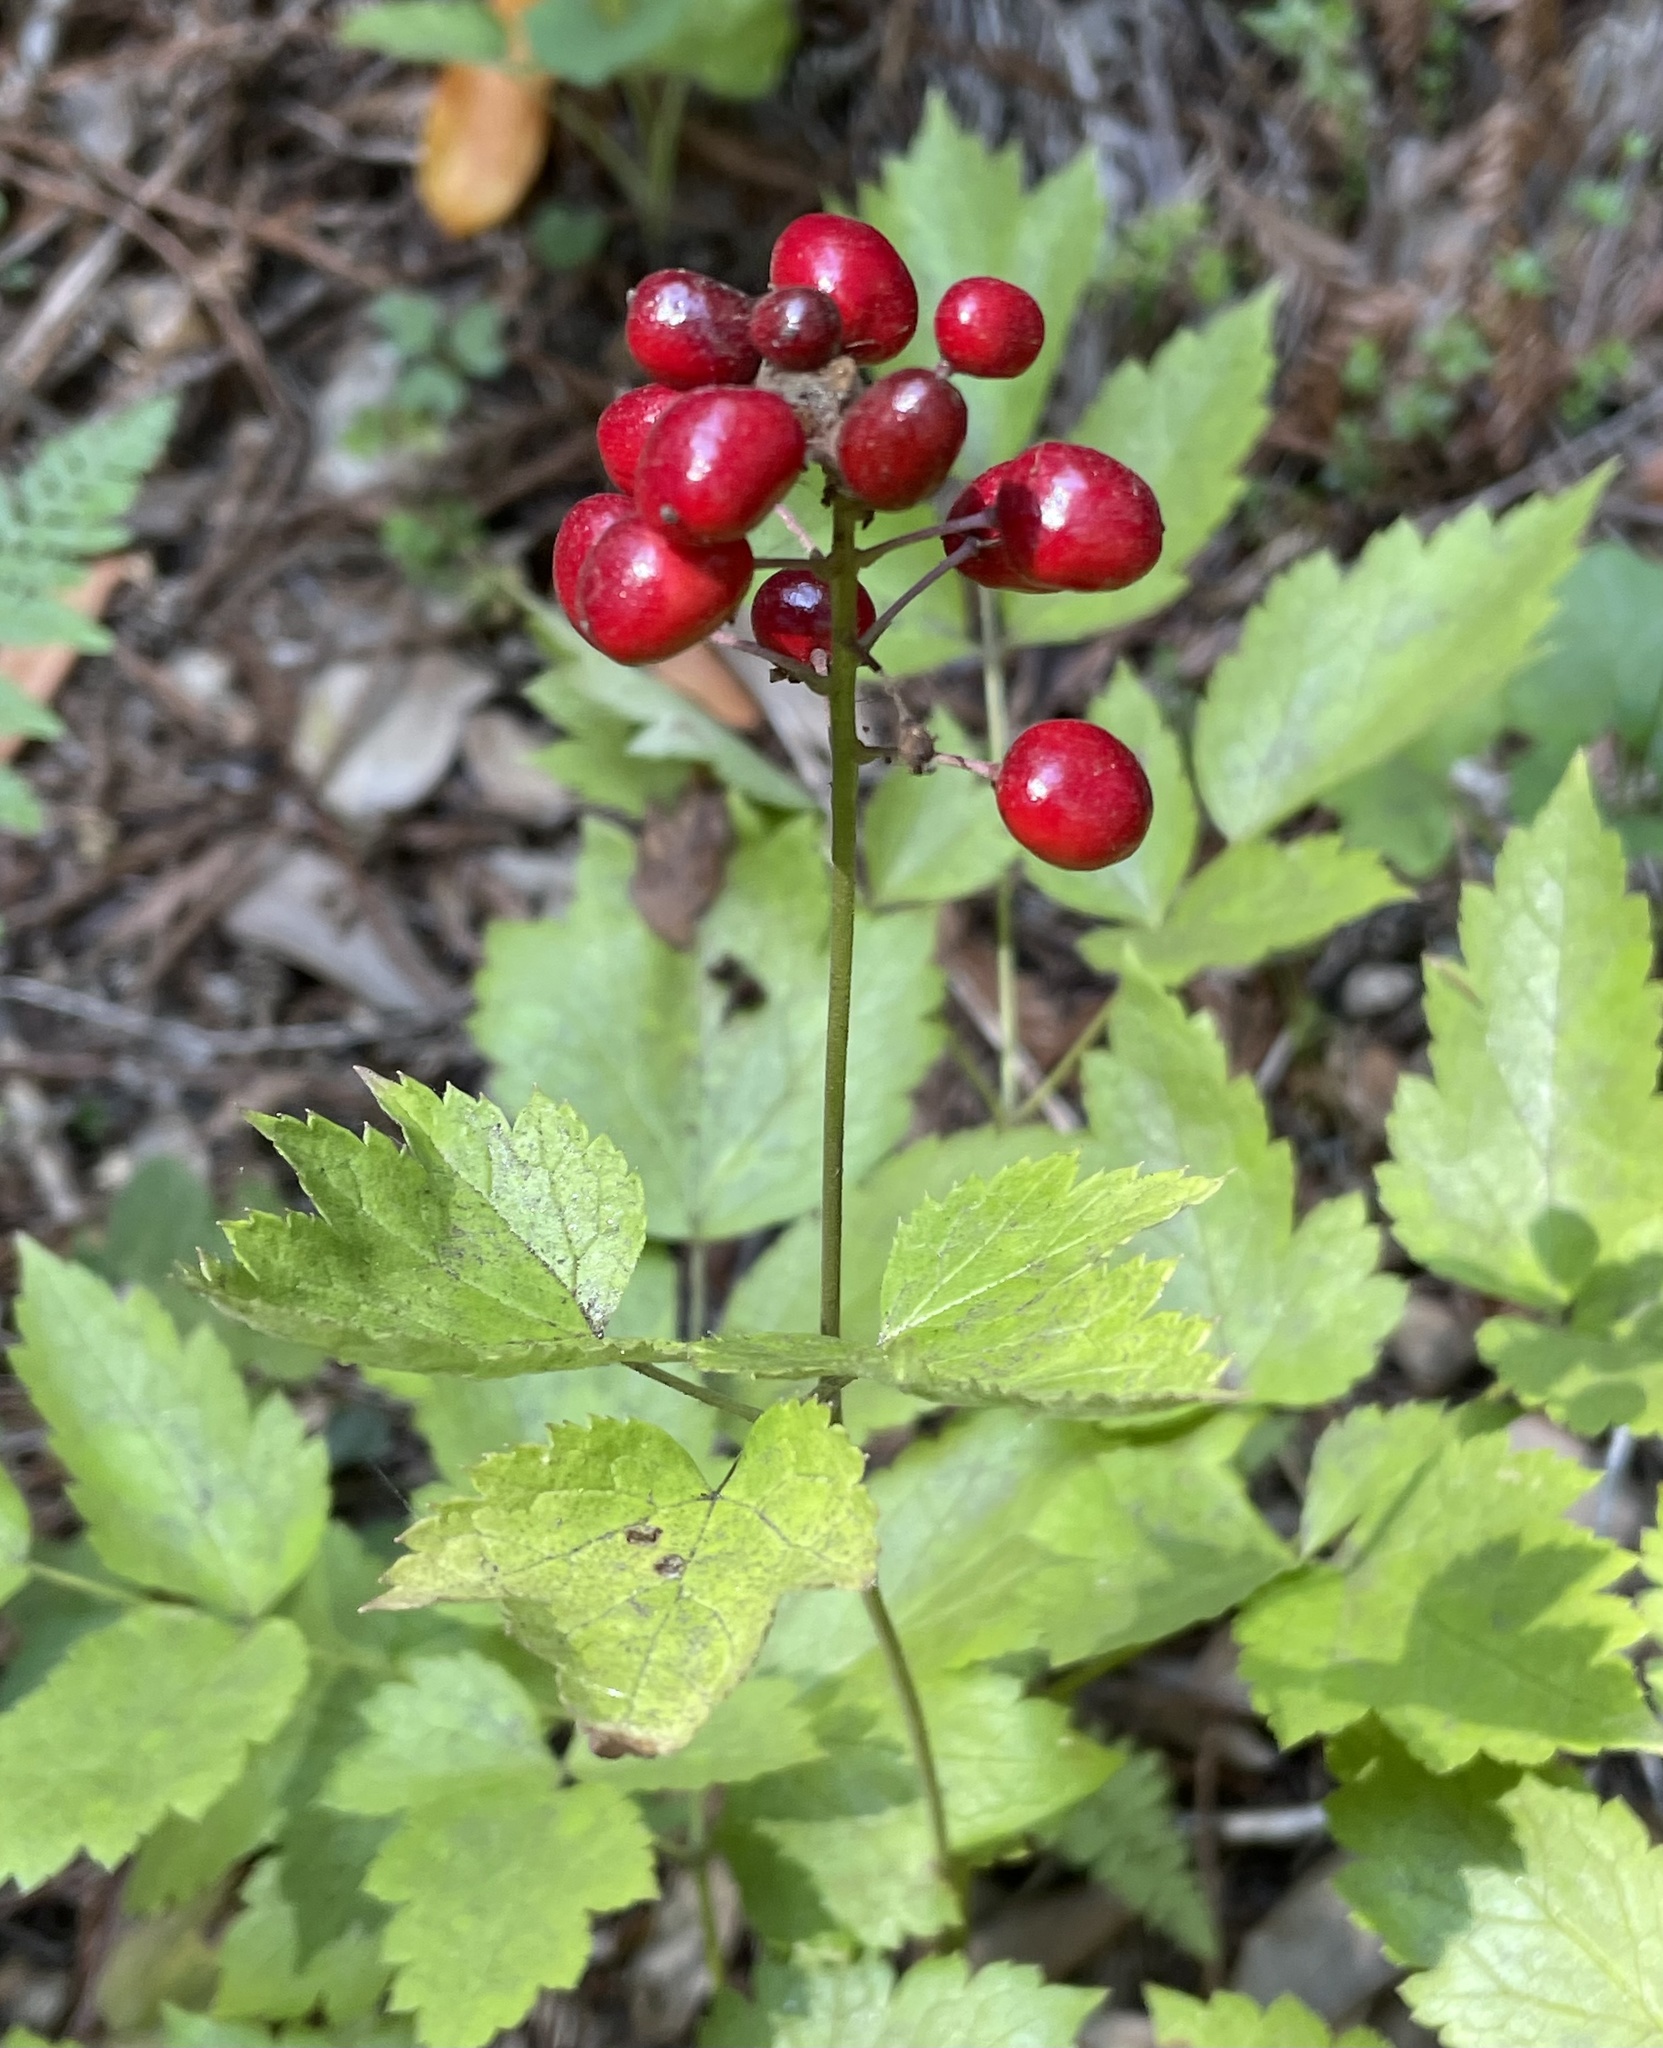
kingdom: Plantae
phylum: Tracheophyta
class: Magnoliopsida
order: Ranunculales
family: Ranunculaceae
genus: Actaea
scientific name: Actaea rubra
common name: Red baneberry
